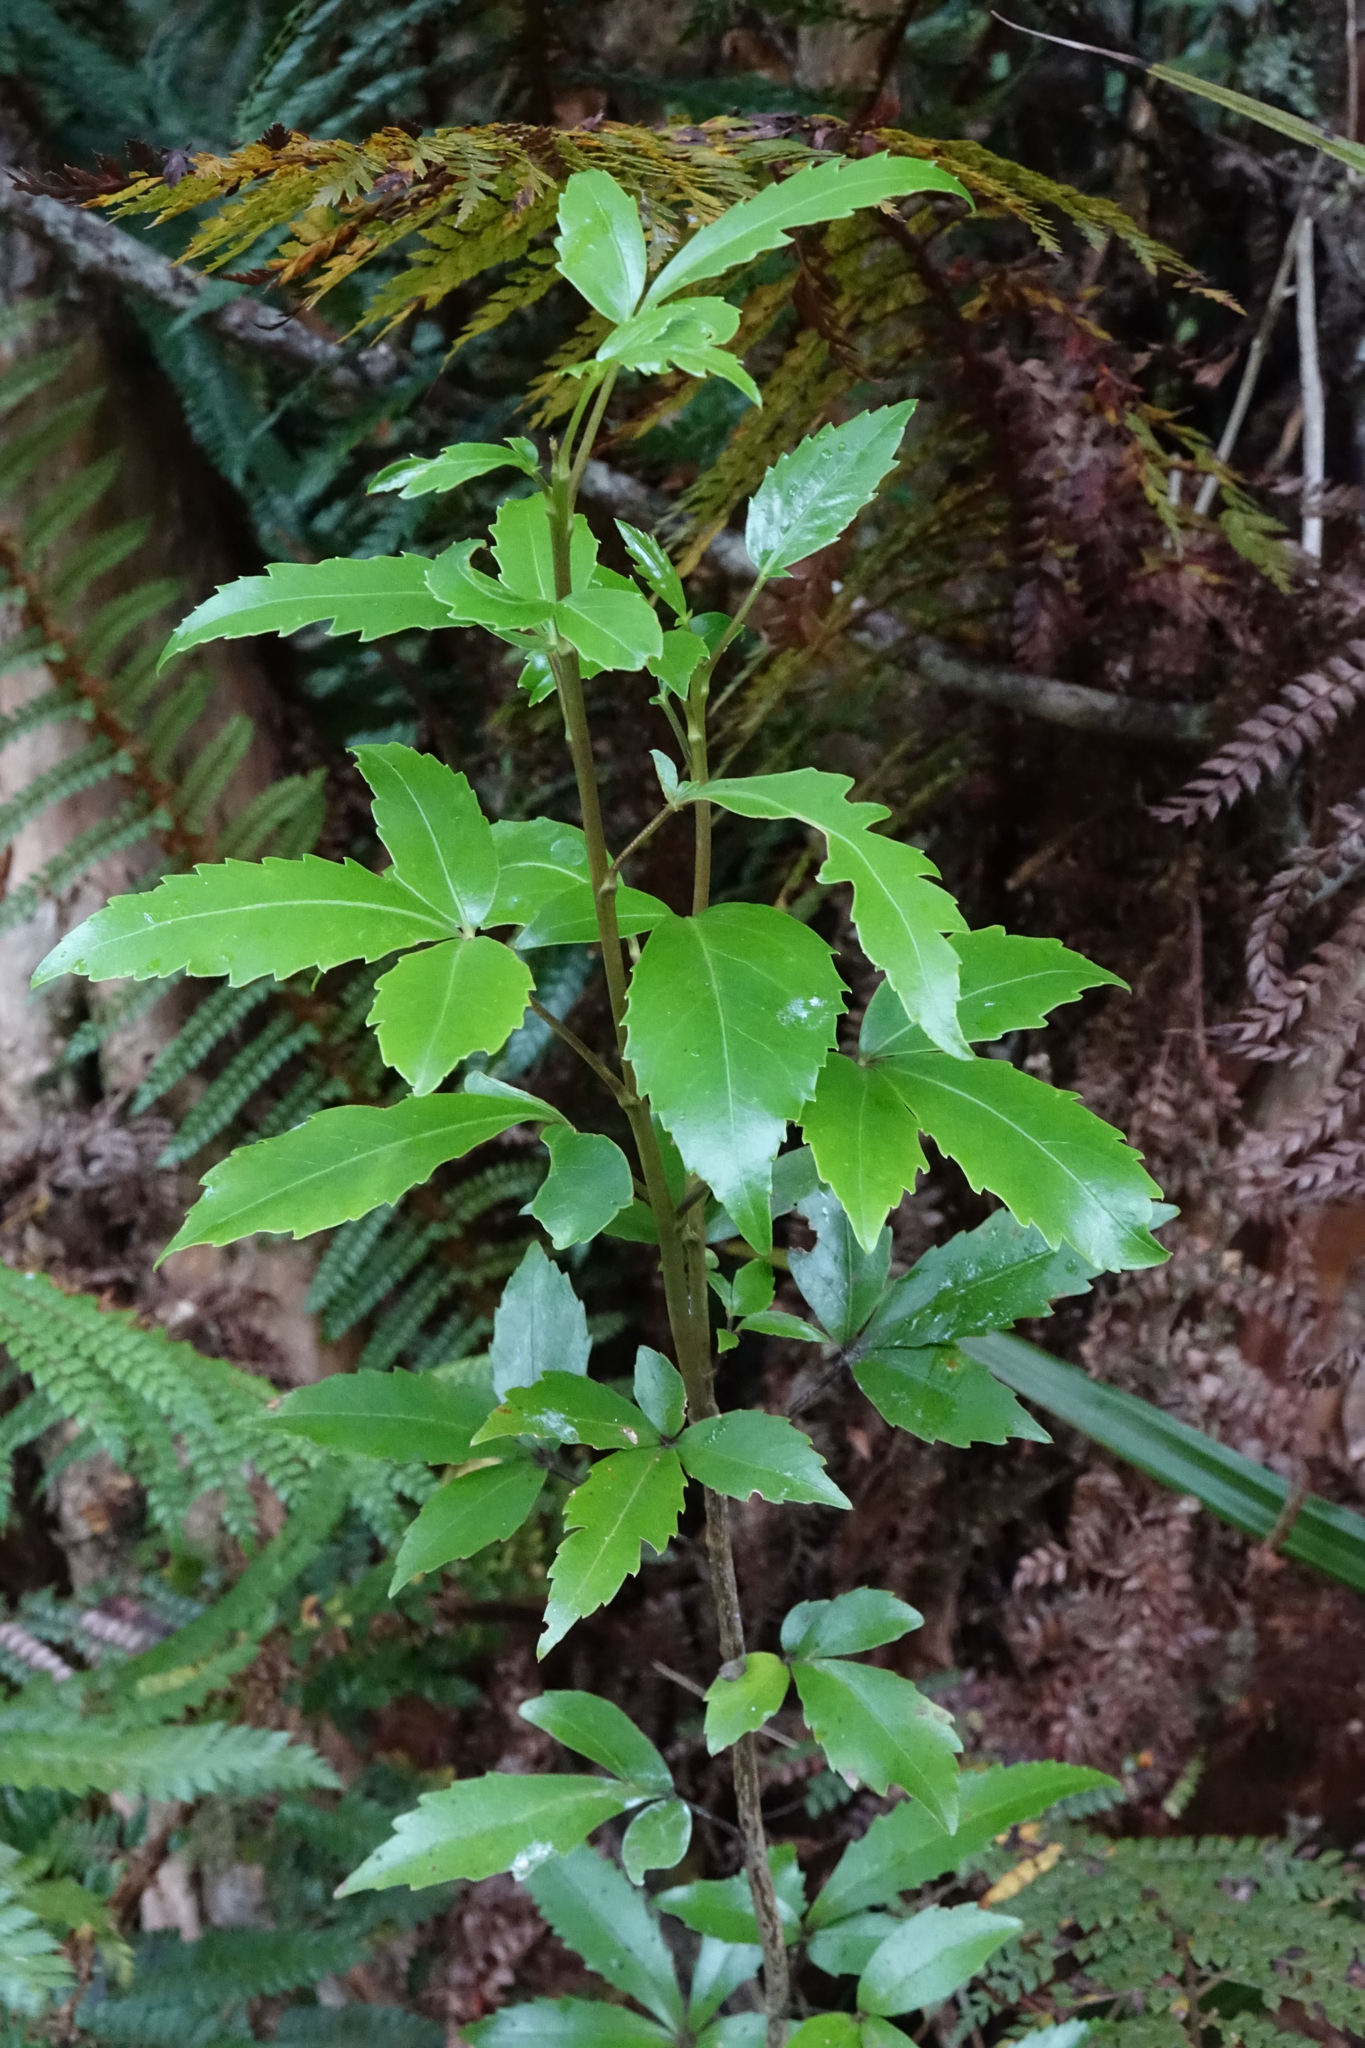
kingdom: Plantae
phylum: Tracheophyta
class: Magnoliopsida
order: Apiales
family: Araliaceae
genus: Raukaua
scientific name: Raukaua simplex
